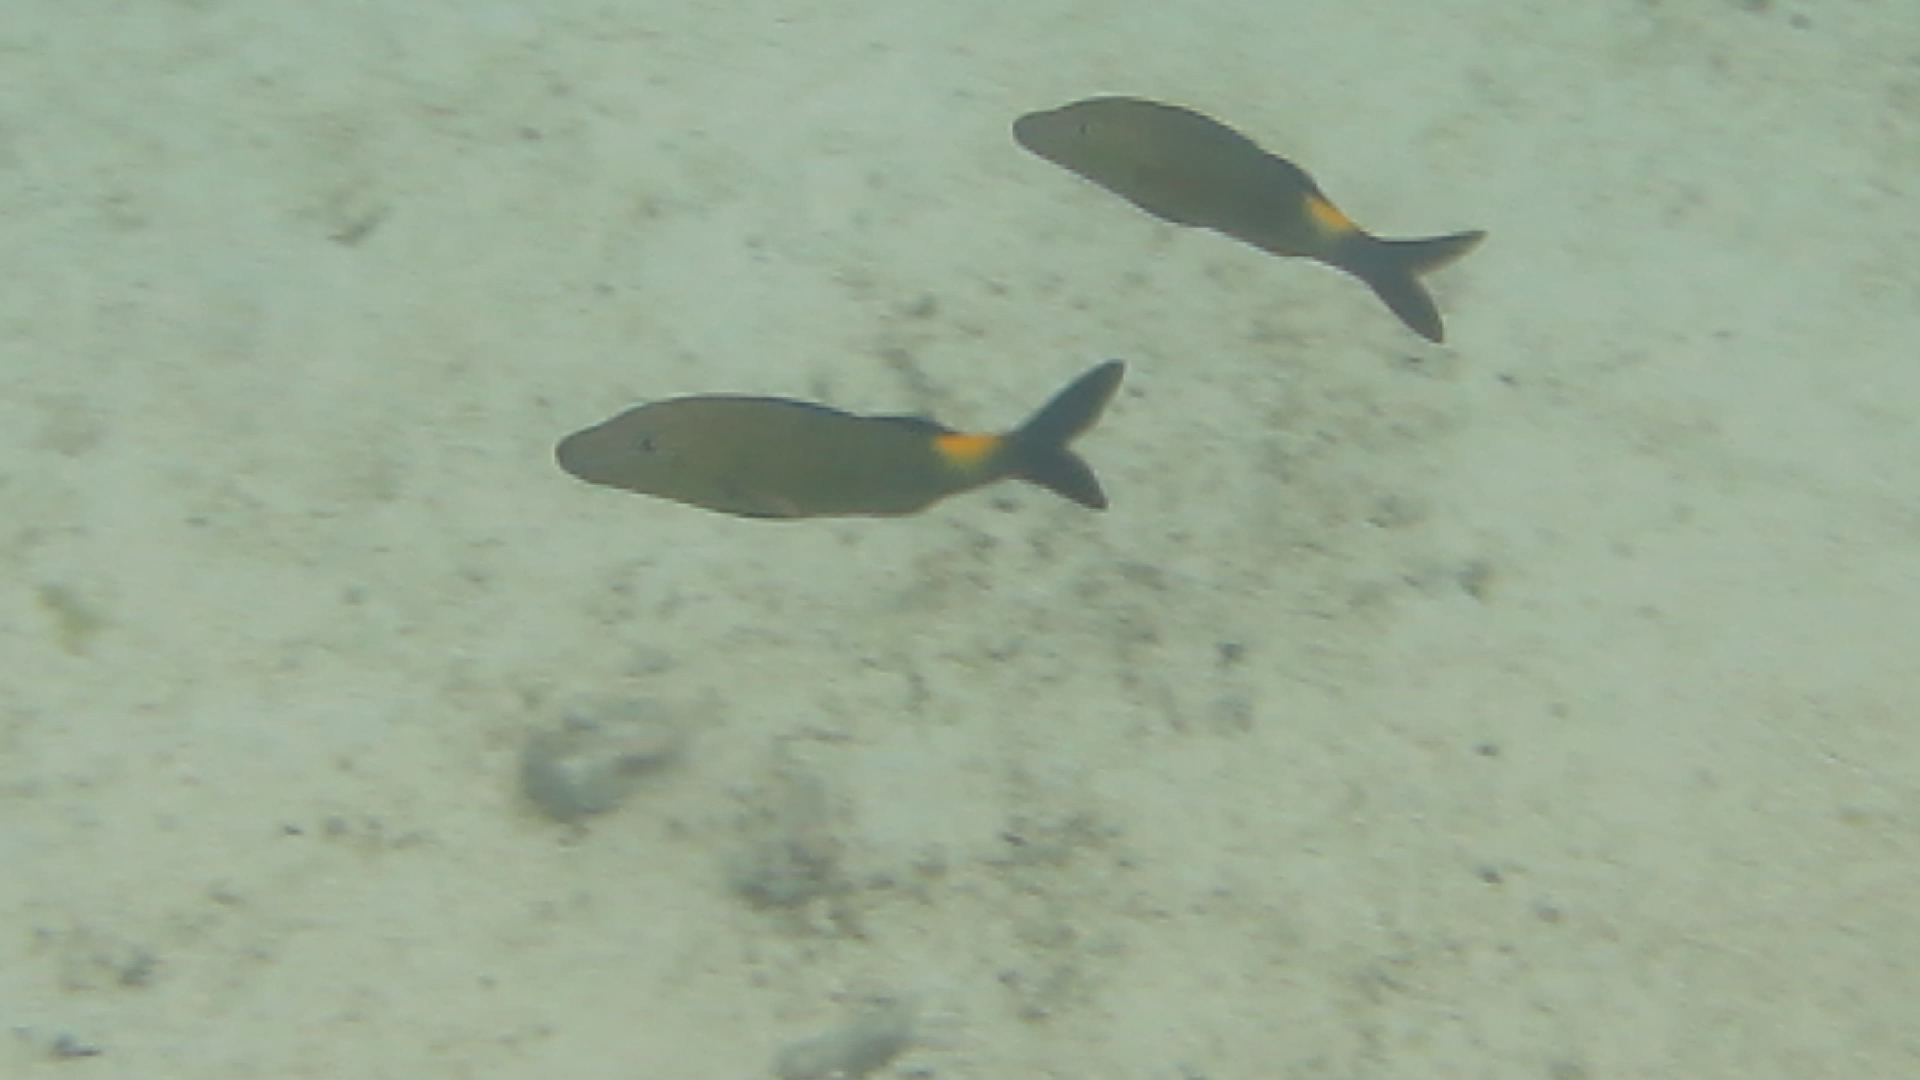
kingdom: Animalia
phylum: Chordata
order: Perciformes
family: Mullidae
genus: Parupeneus
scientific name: Parupeneus cyclostomus
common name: Goldsaddle goatfish
